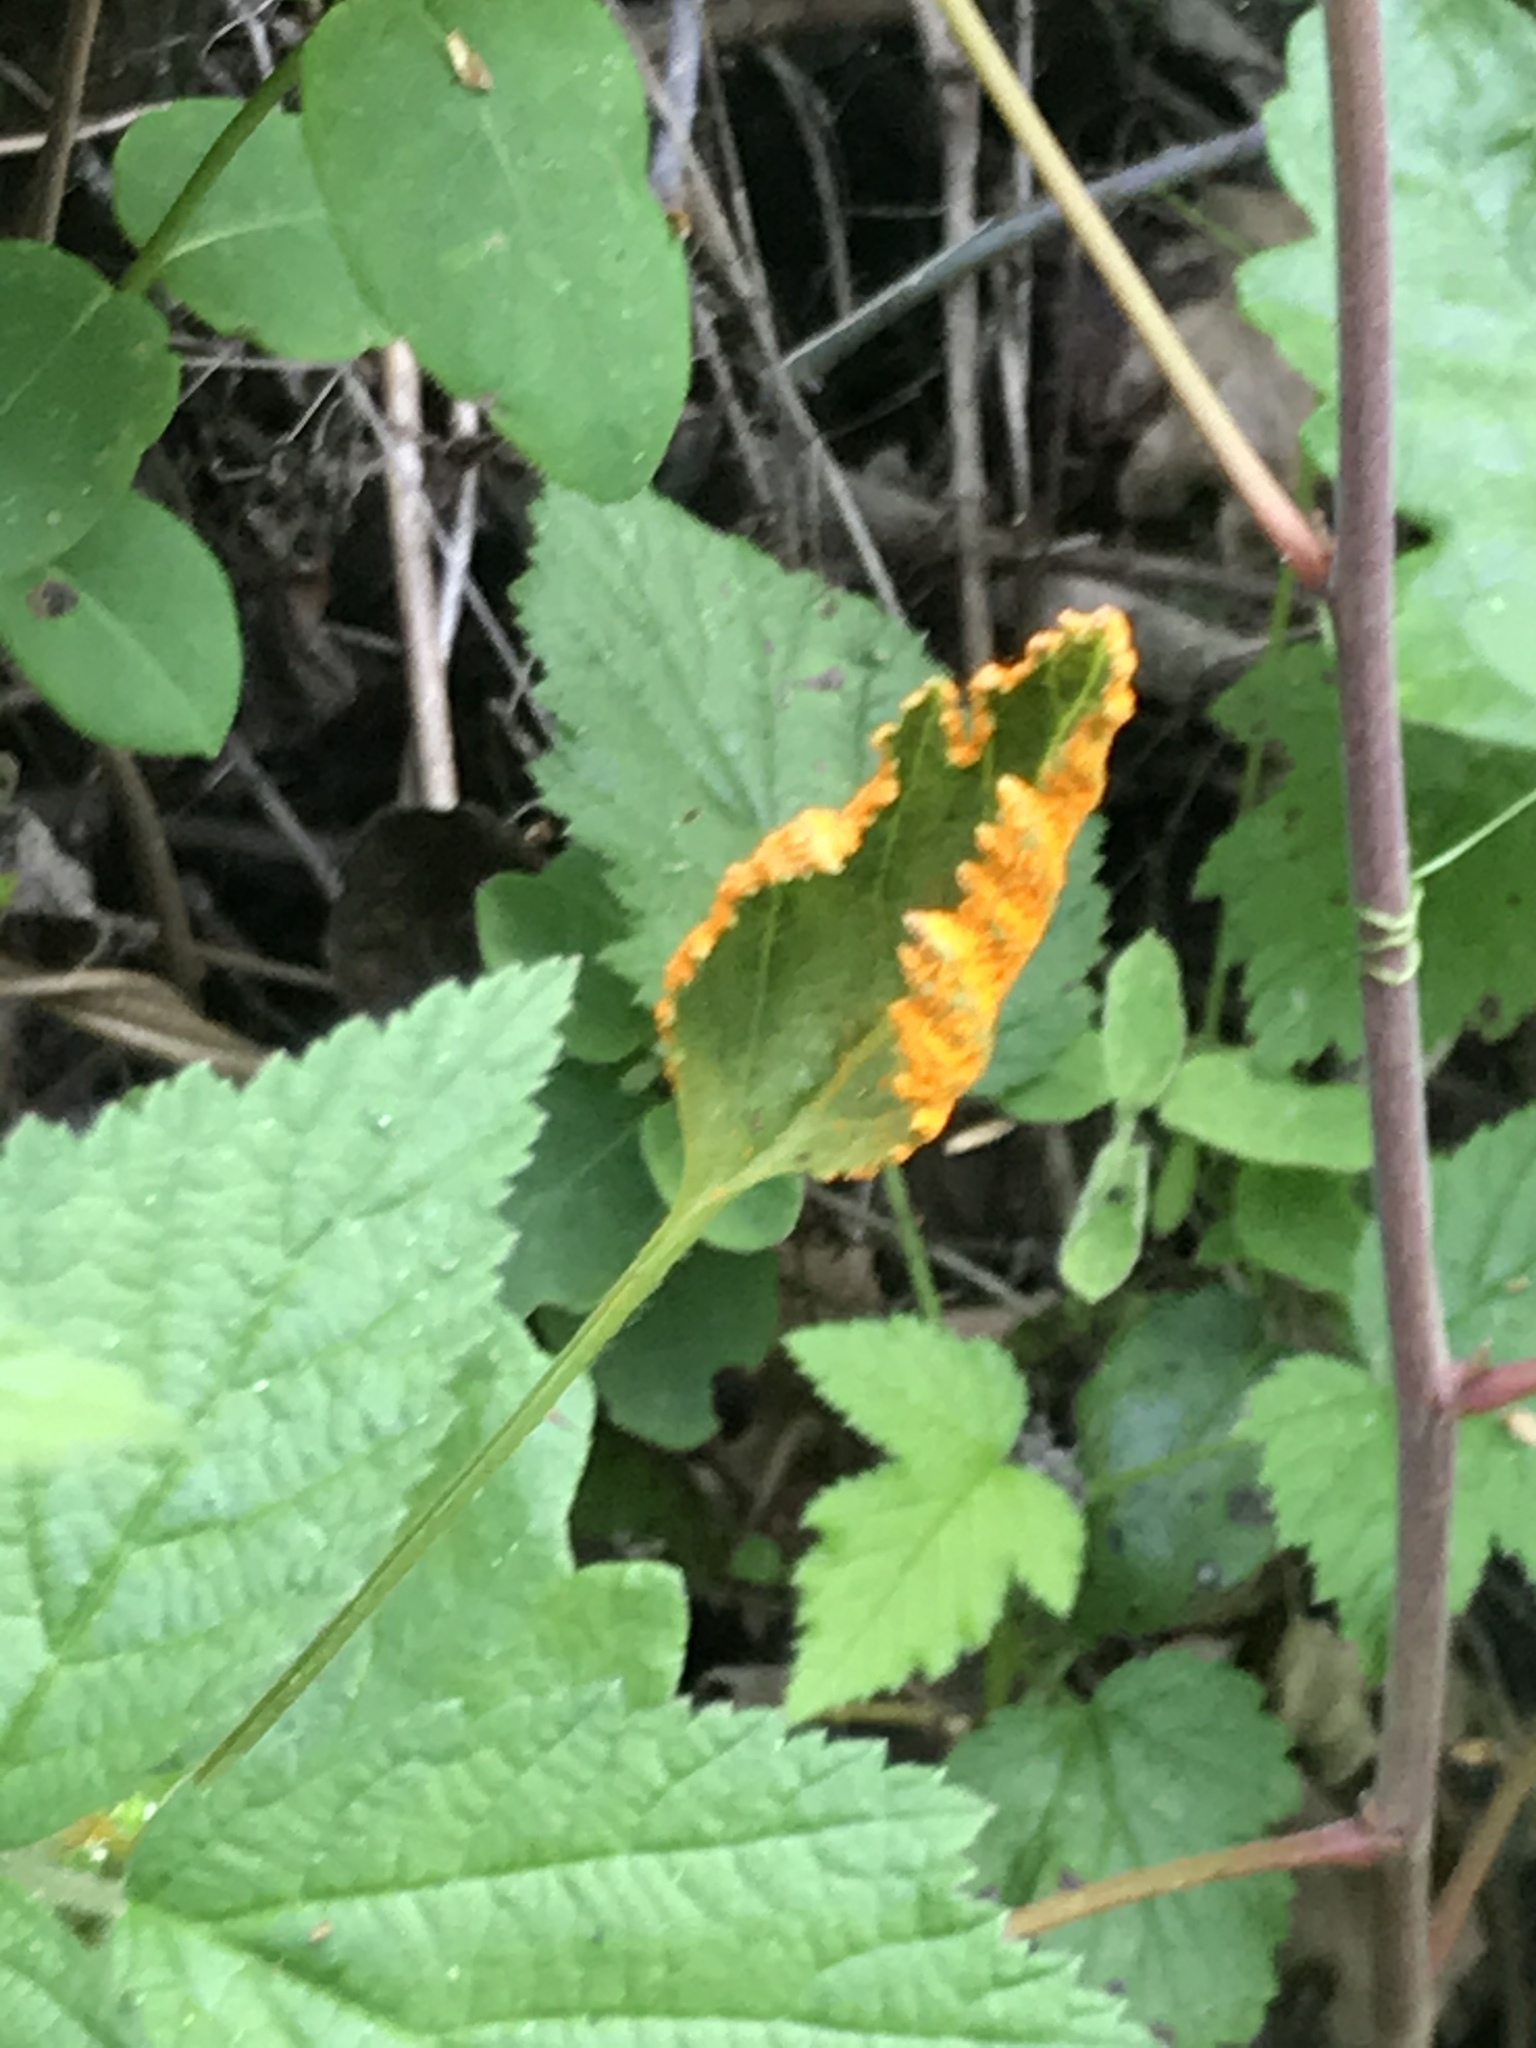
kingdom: Fungi
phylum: Basidiomycota
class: Pucciniomycetes
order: Pucciniales
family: Phragmidiaceae
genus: Arthuriomyces
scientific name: Arthuriomyces peckianus
